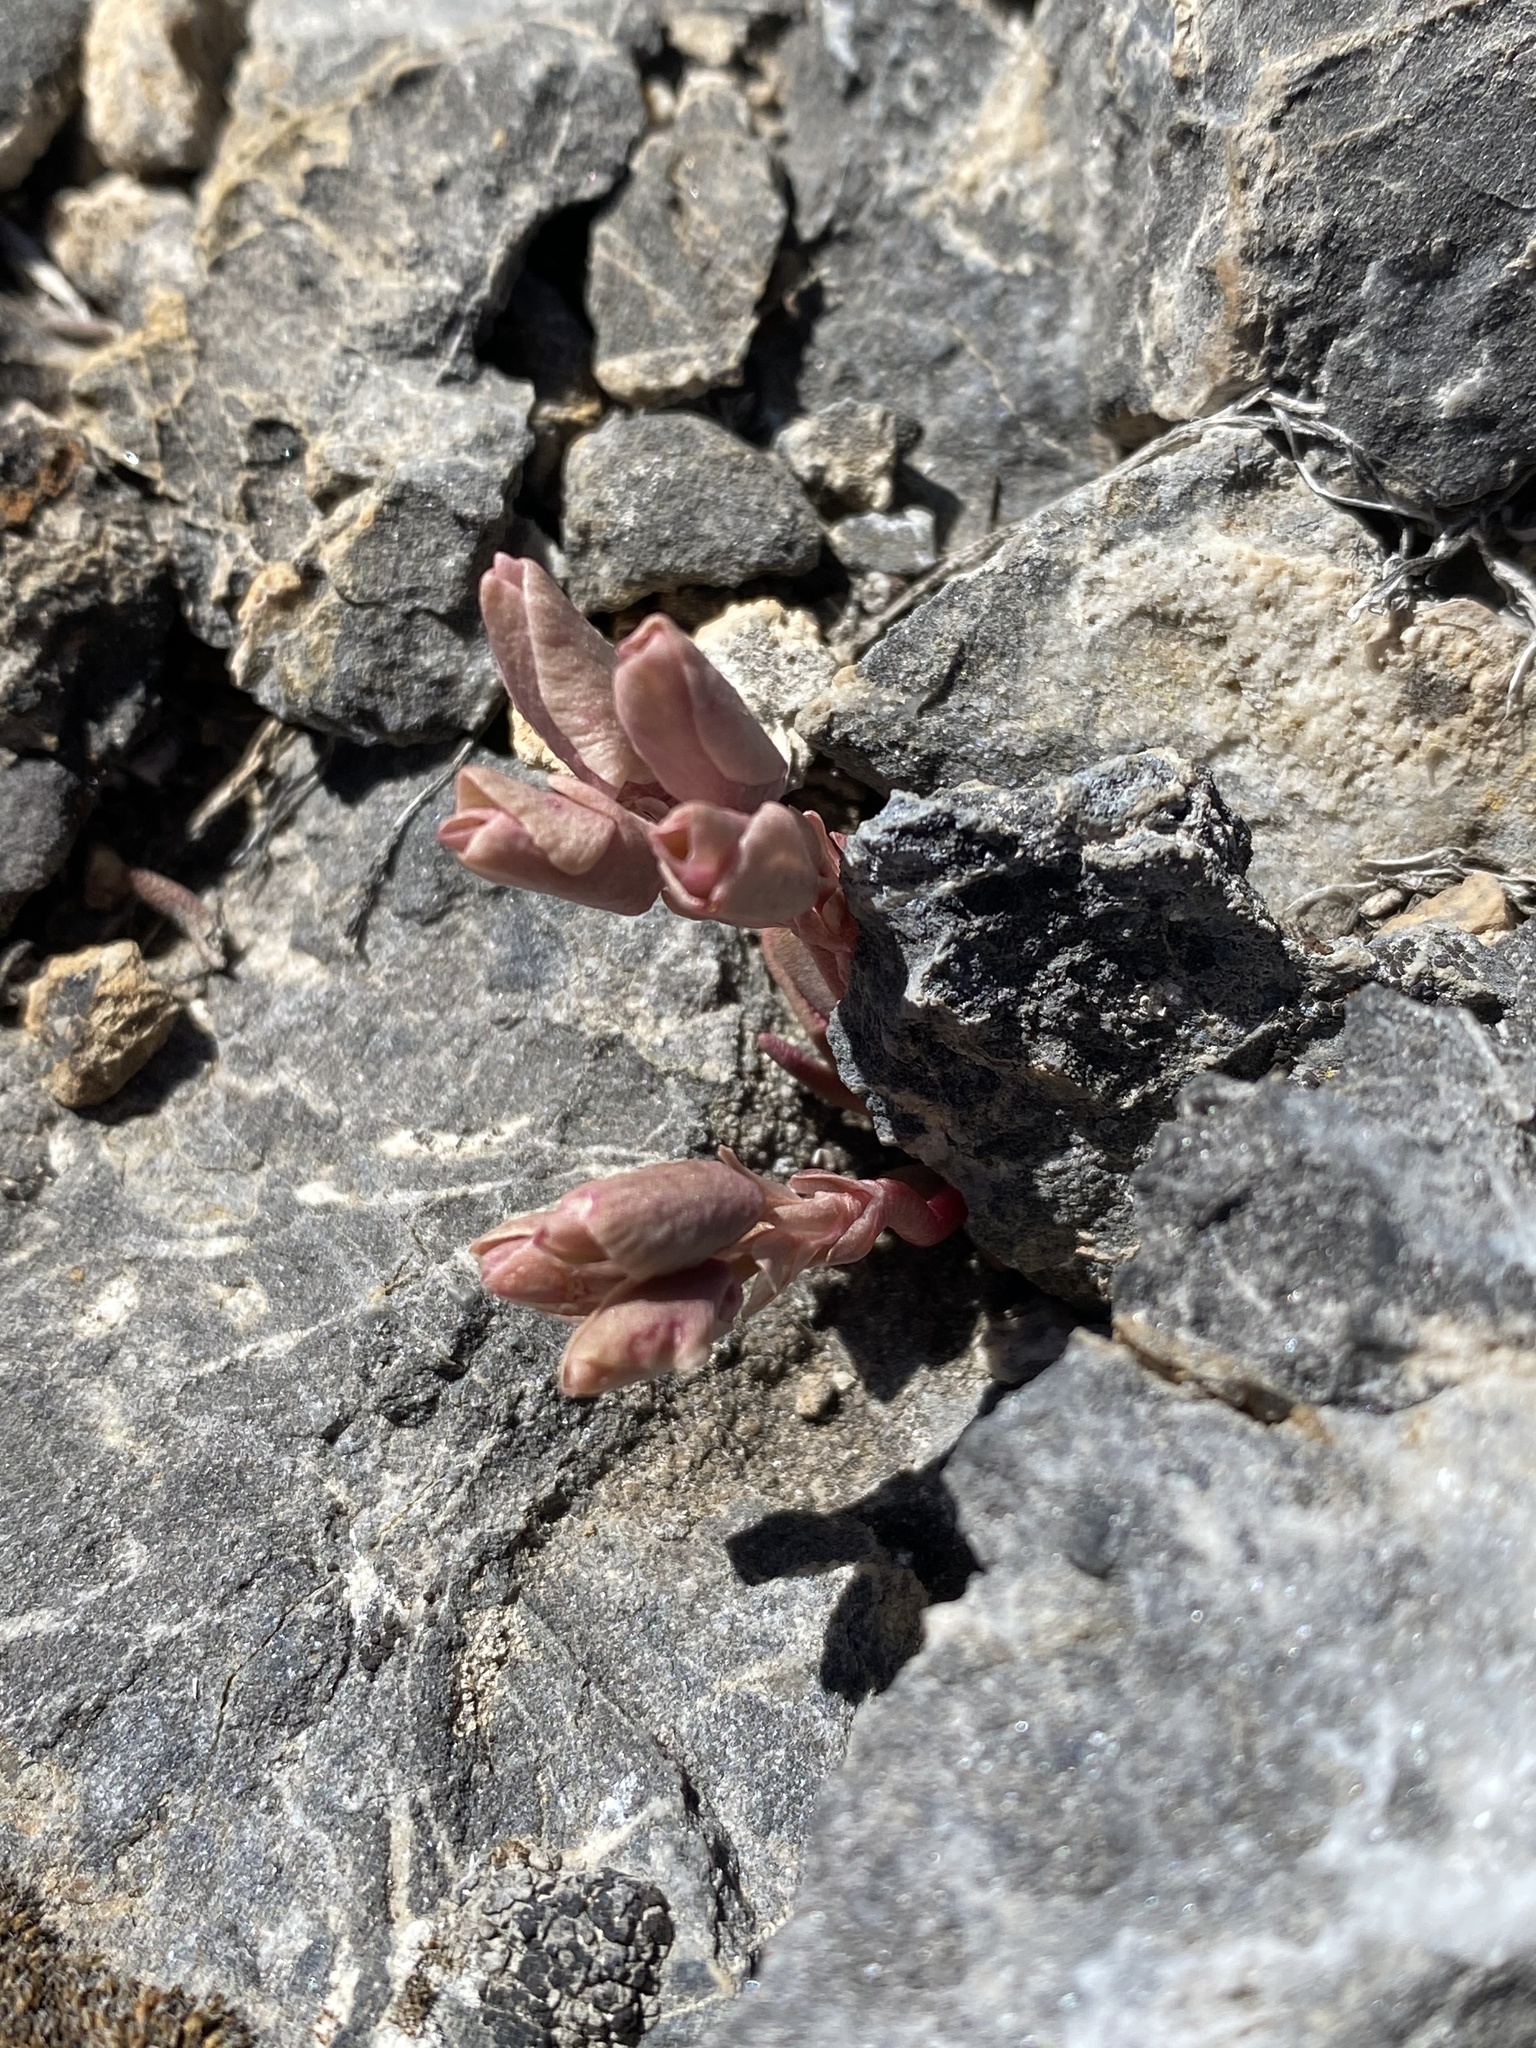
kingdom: Plantae
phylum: Tracheophyta
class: Magnoliopsida
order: Caryophyllales
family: Montiaceae
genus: Lewisia
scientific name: Lewisia maguirei
